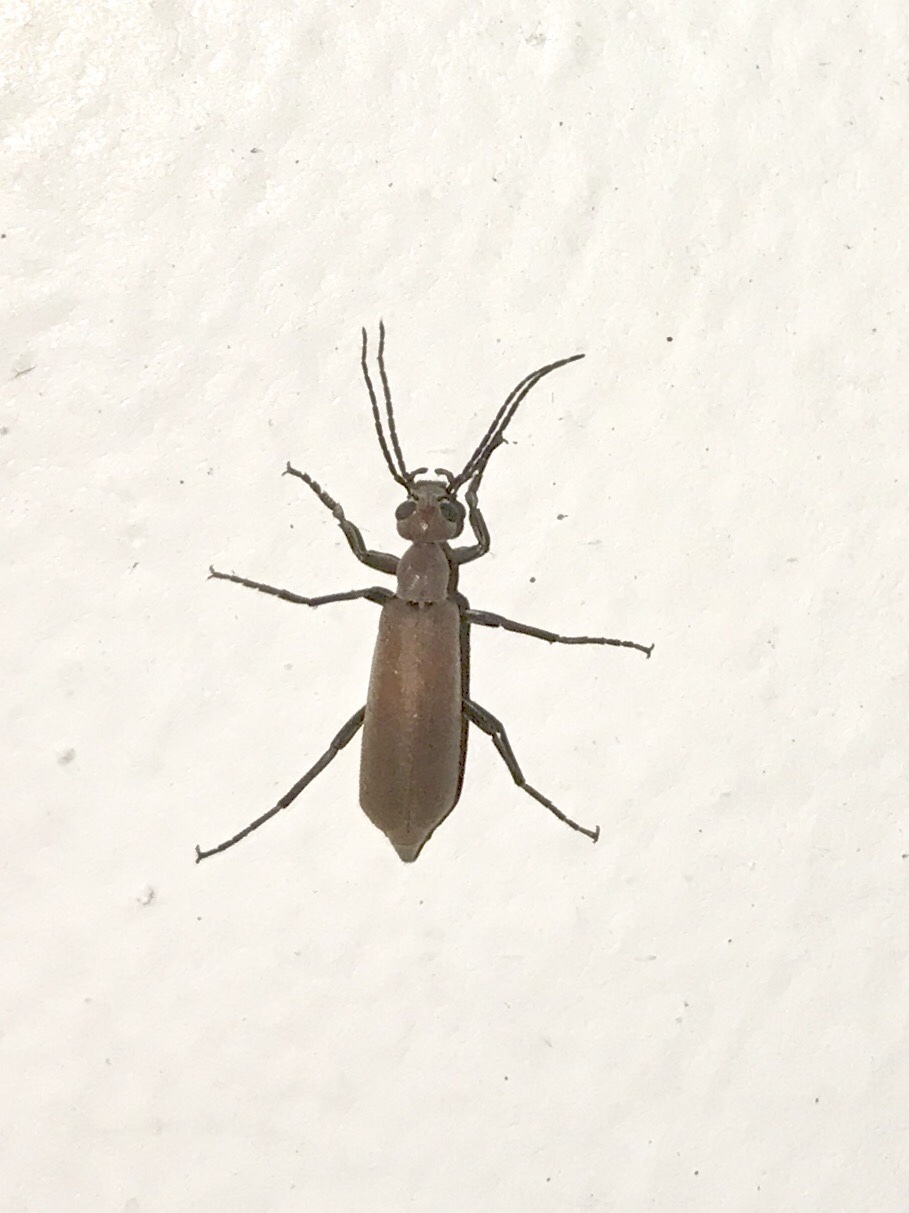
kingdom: Animalia
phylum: Arthropoda
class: Insecta
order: Coleoptera
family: Meloidae
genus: Epicauta
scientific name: Epicauta lauta
